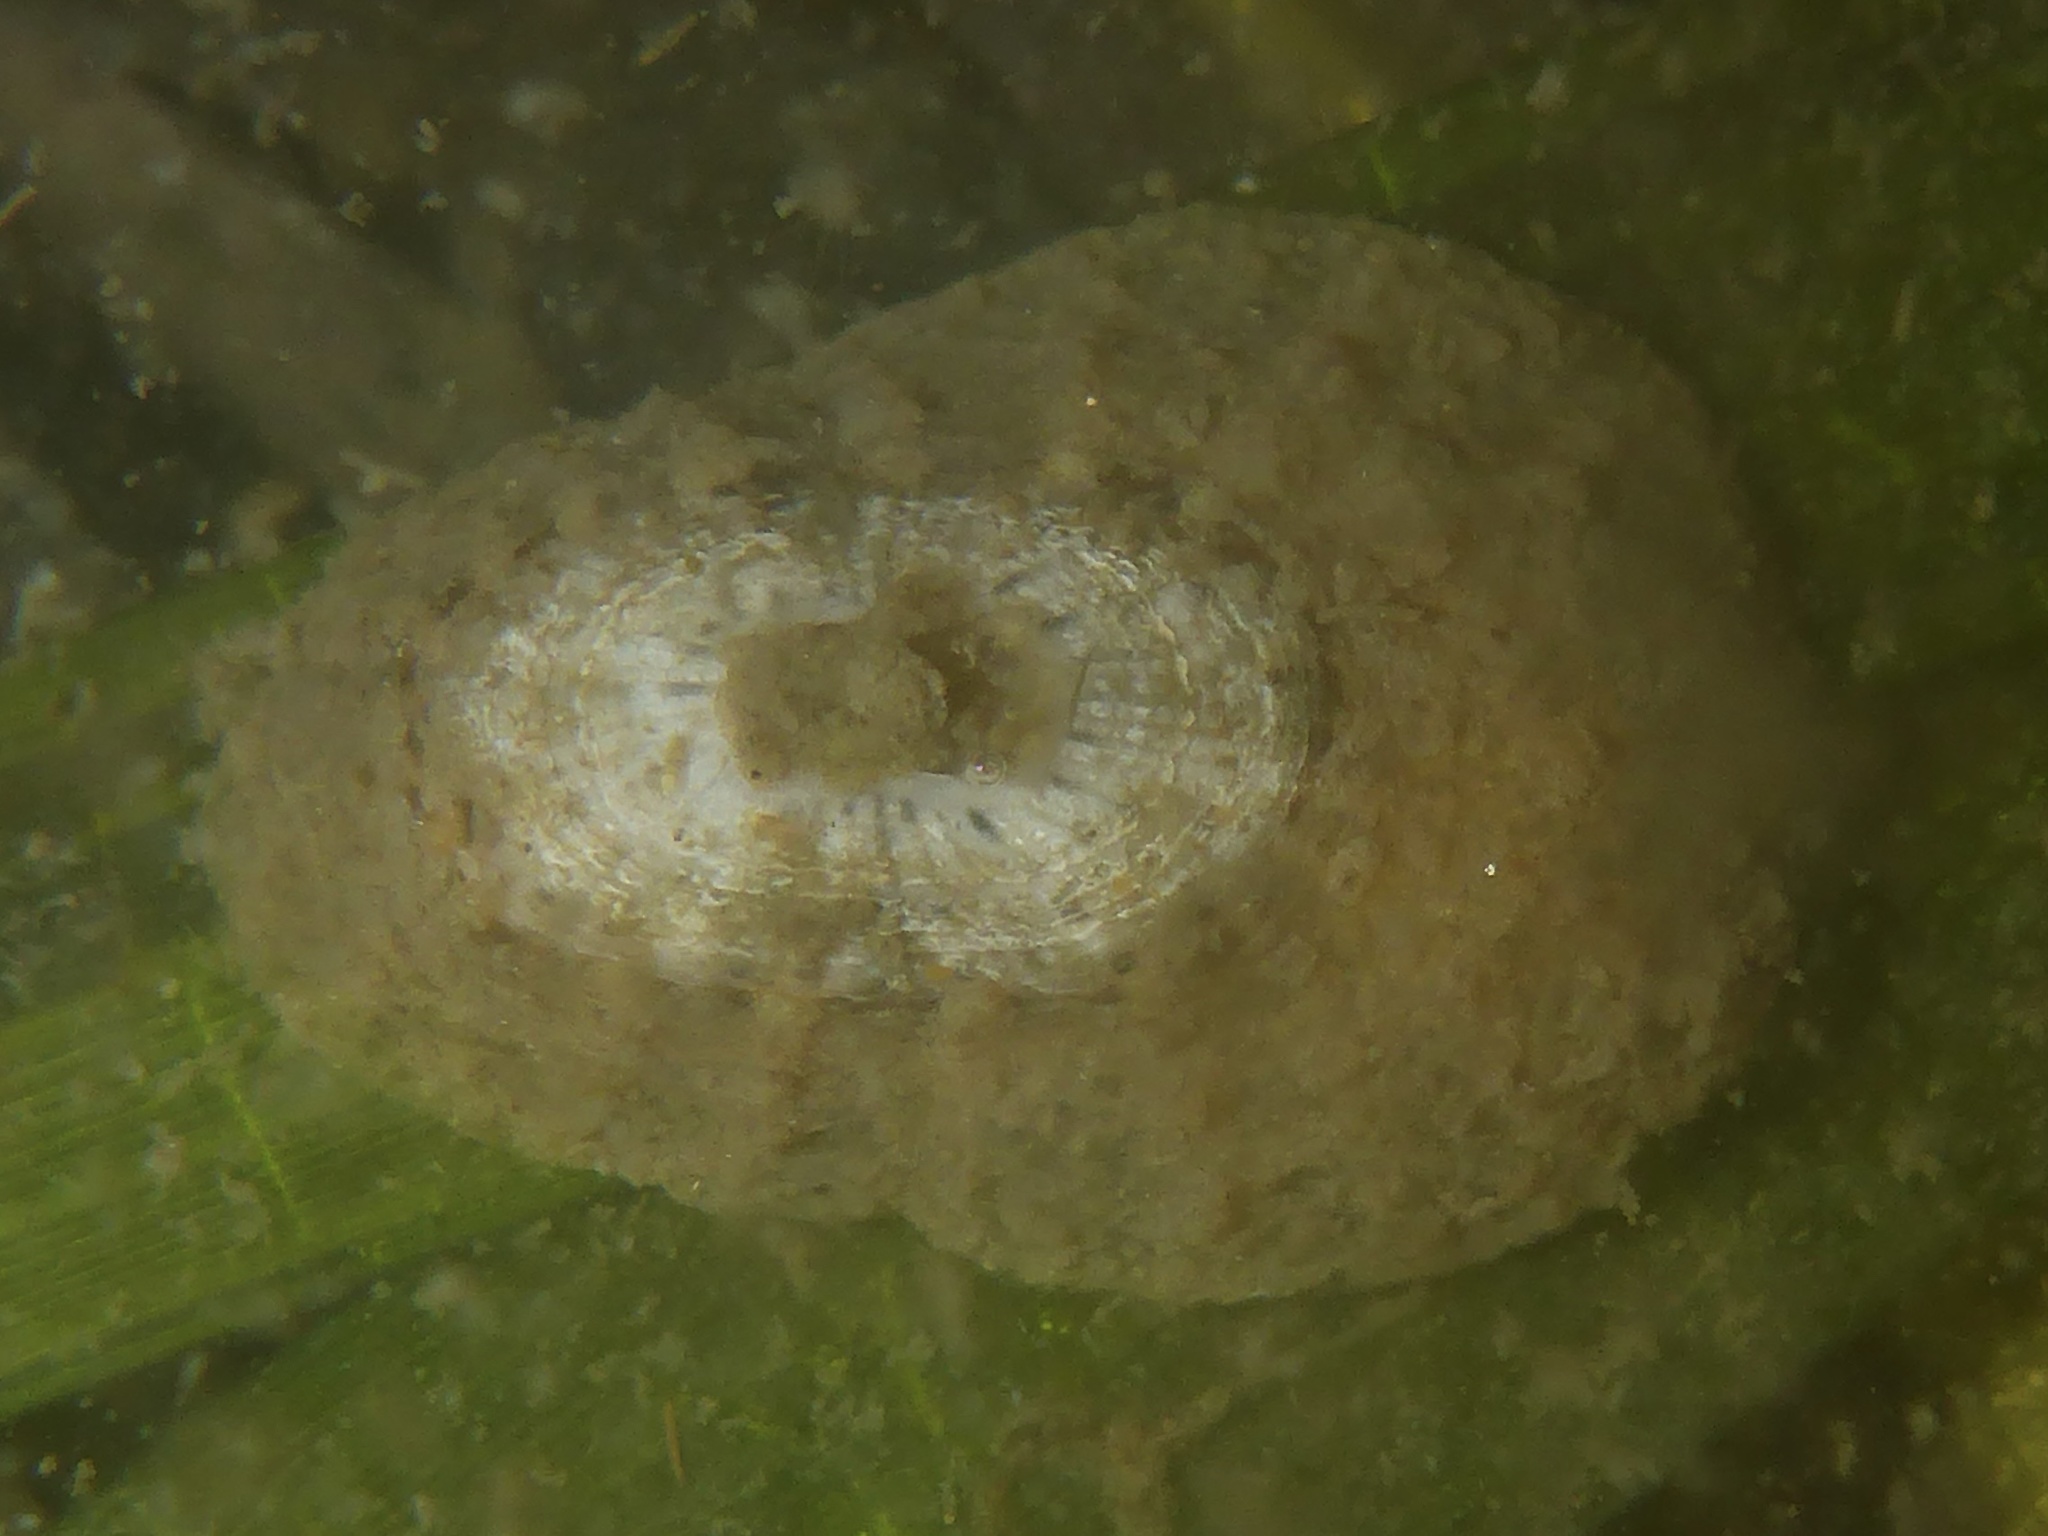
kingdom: Animalia
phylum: Mollusca
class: Gastropoda
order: Lepetellida
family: Fissurellidae
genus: Fissurellidea
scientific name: Fissurellidea bimaculata
